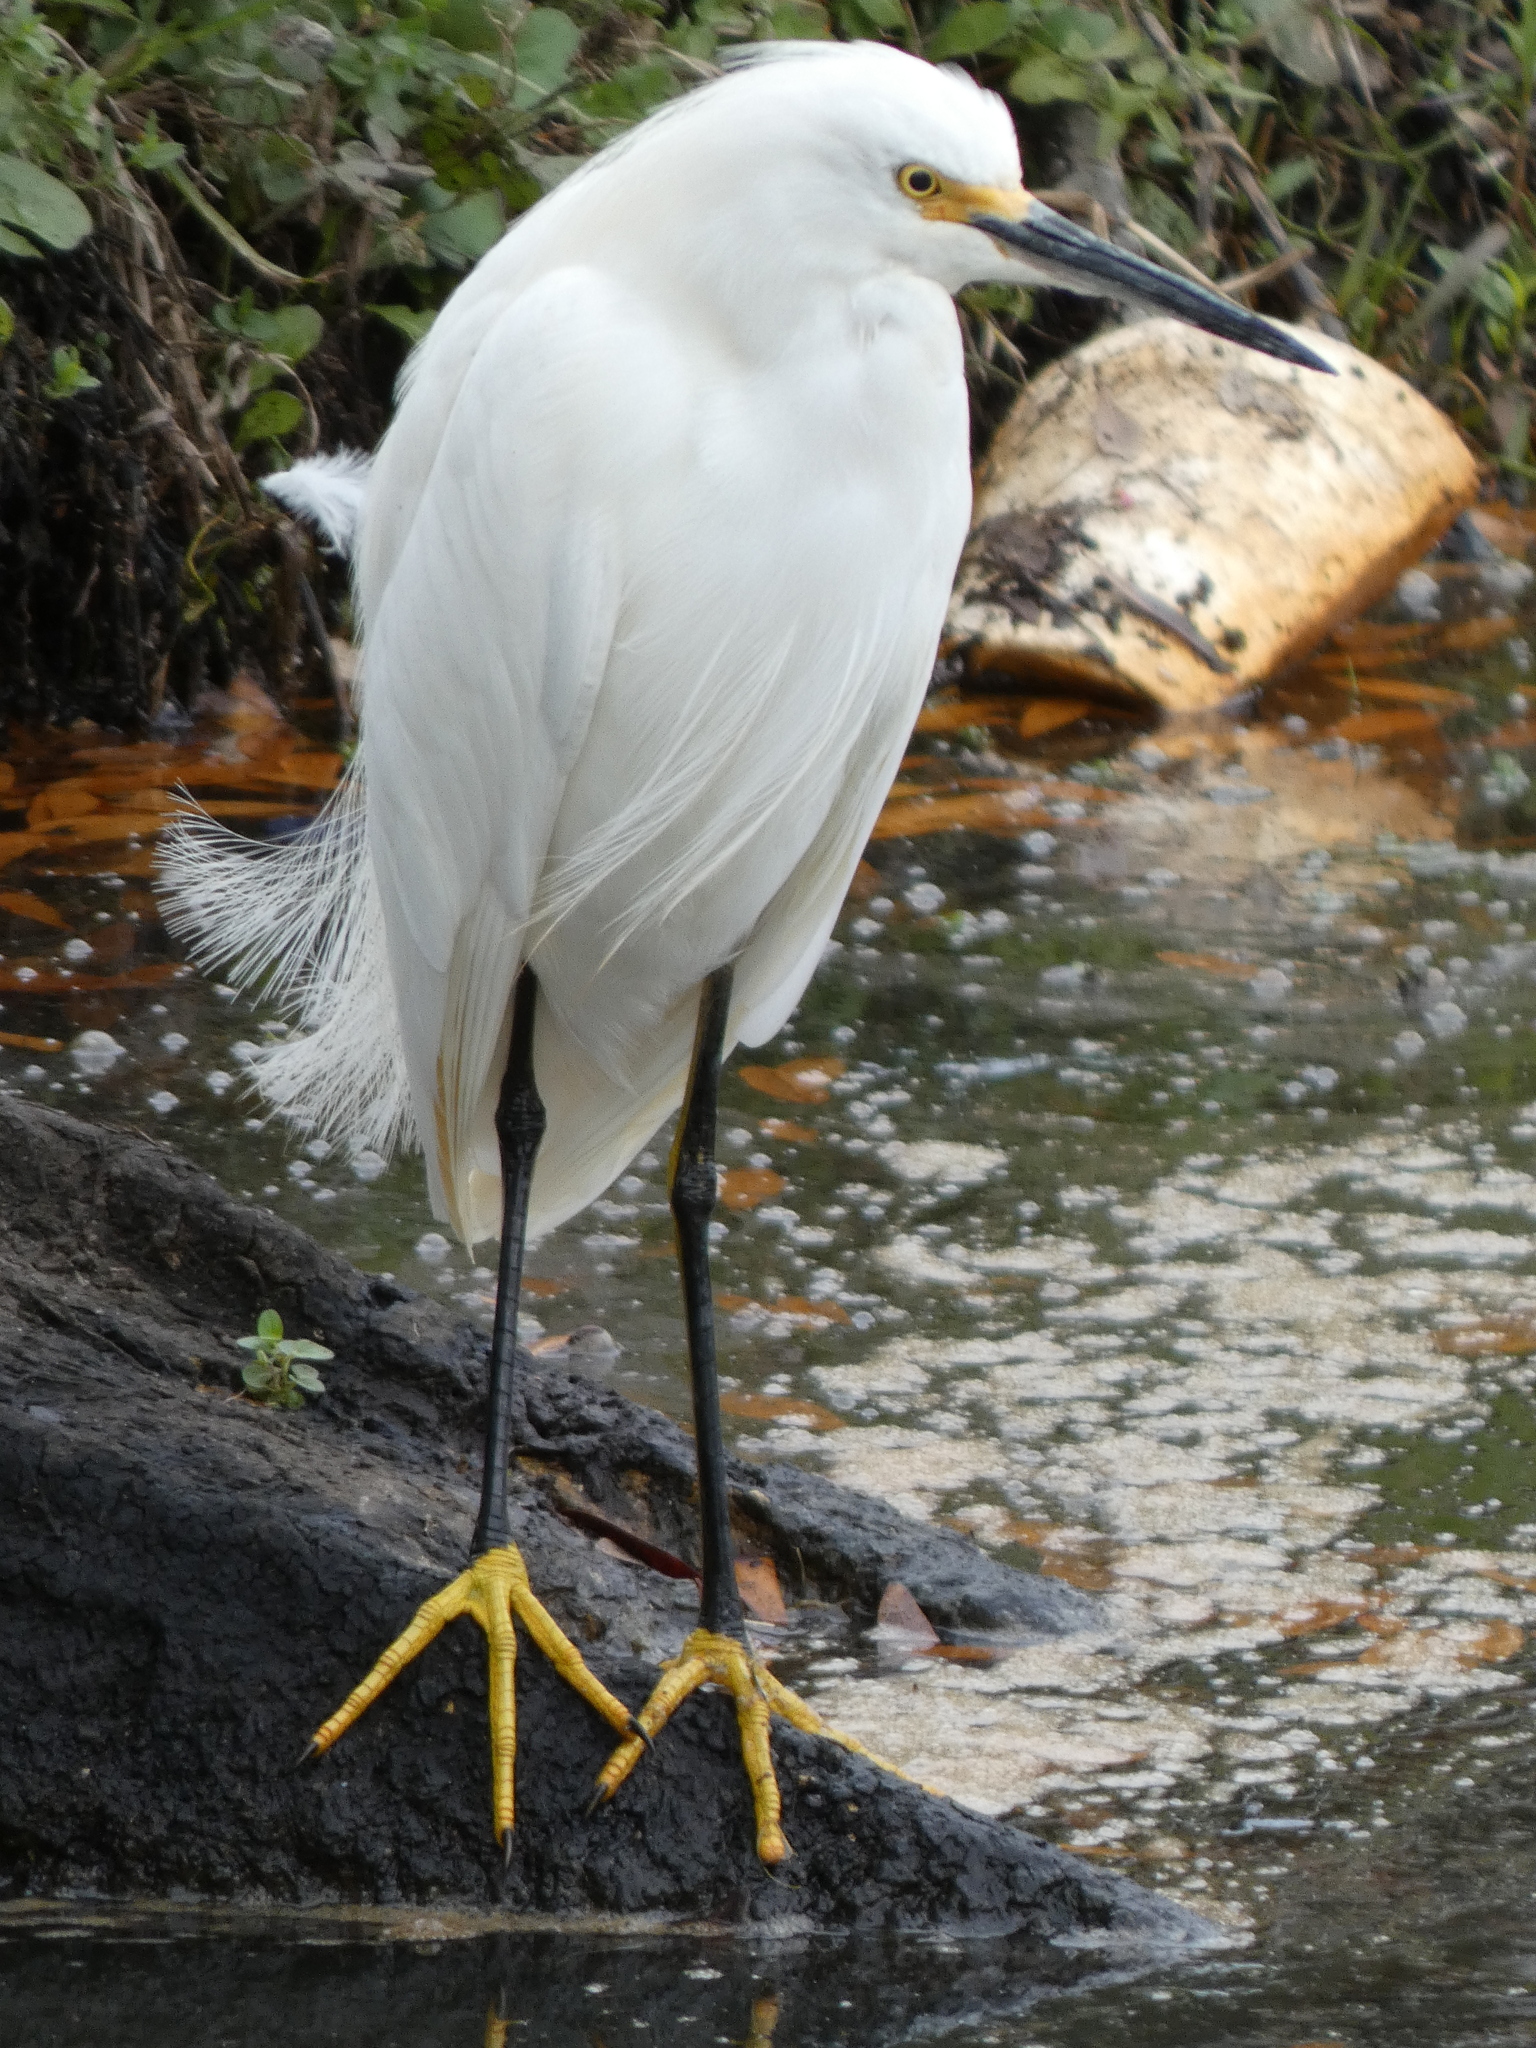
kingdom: Animalia
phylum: Chordata
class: Aves
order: Pelecaniformes
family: Ardeidae
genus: Egretta
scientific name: Egretta thula
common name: Snowy egret
